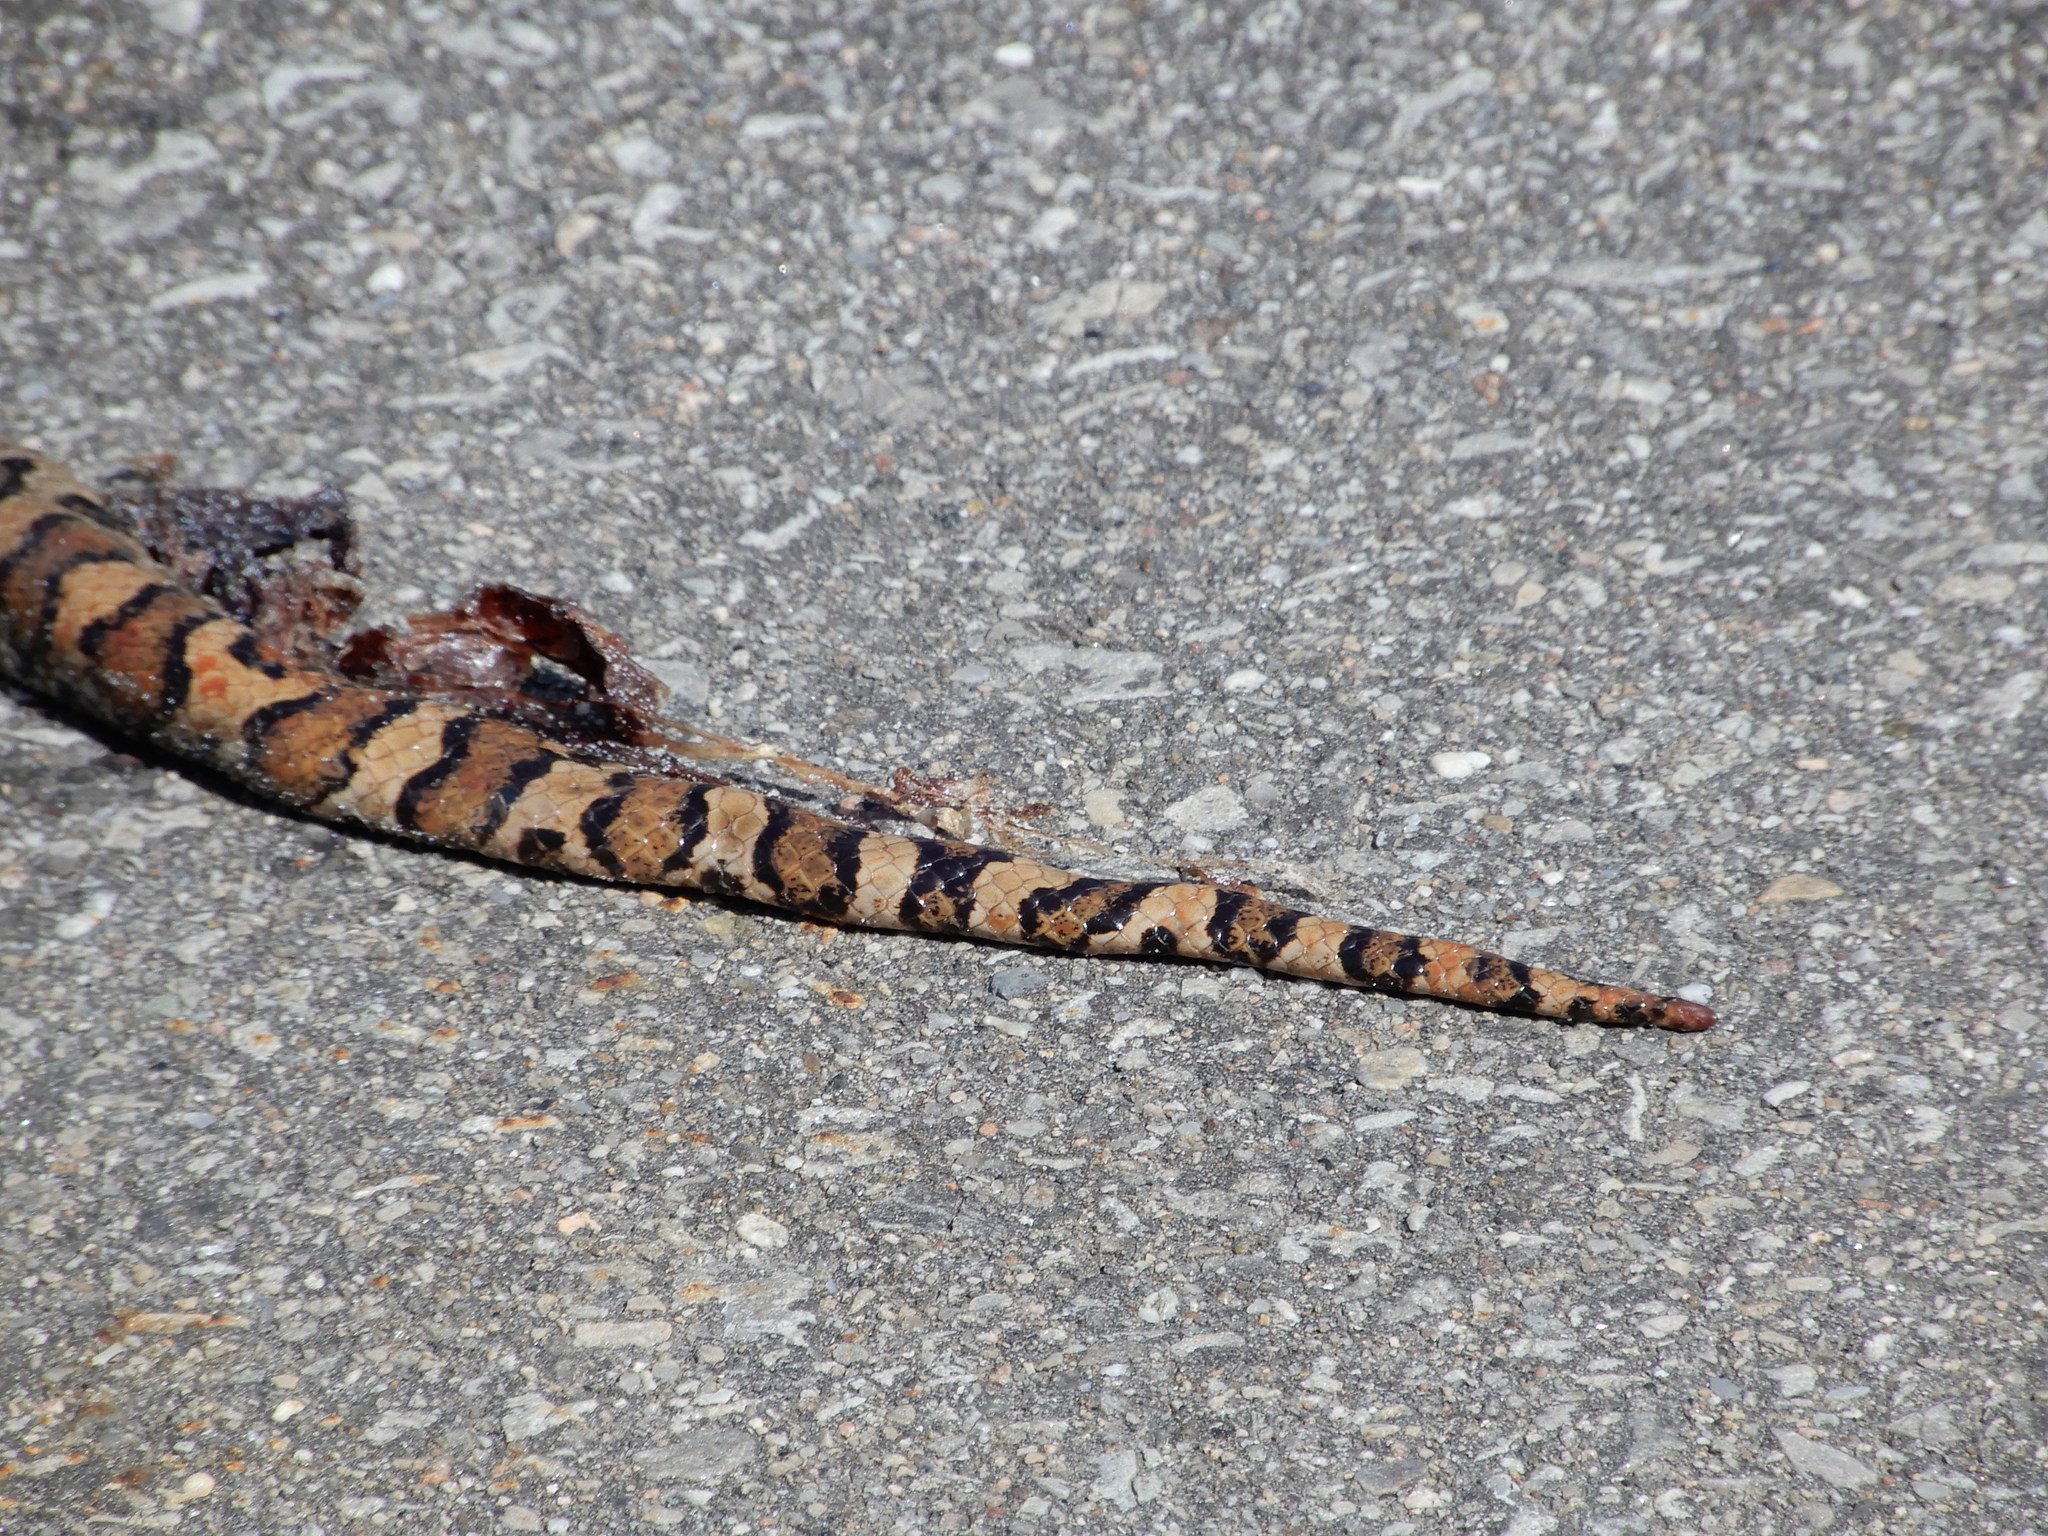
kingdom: Animalia
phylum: Chordata
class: Squamata
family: Colubridae
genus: Lampropeltis
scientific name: Lampropeltis triangulum
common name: Eastern milksnake
